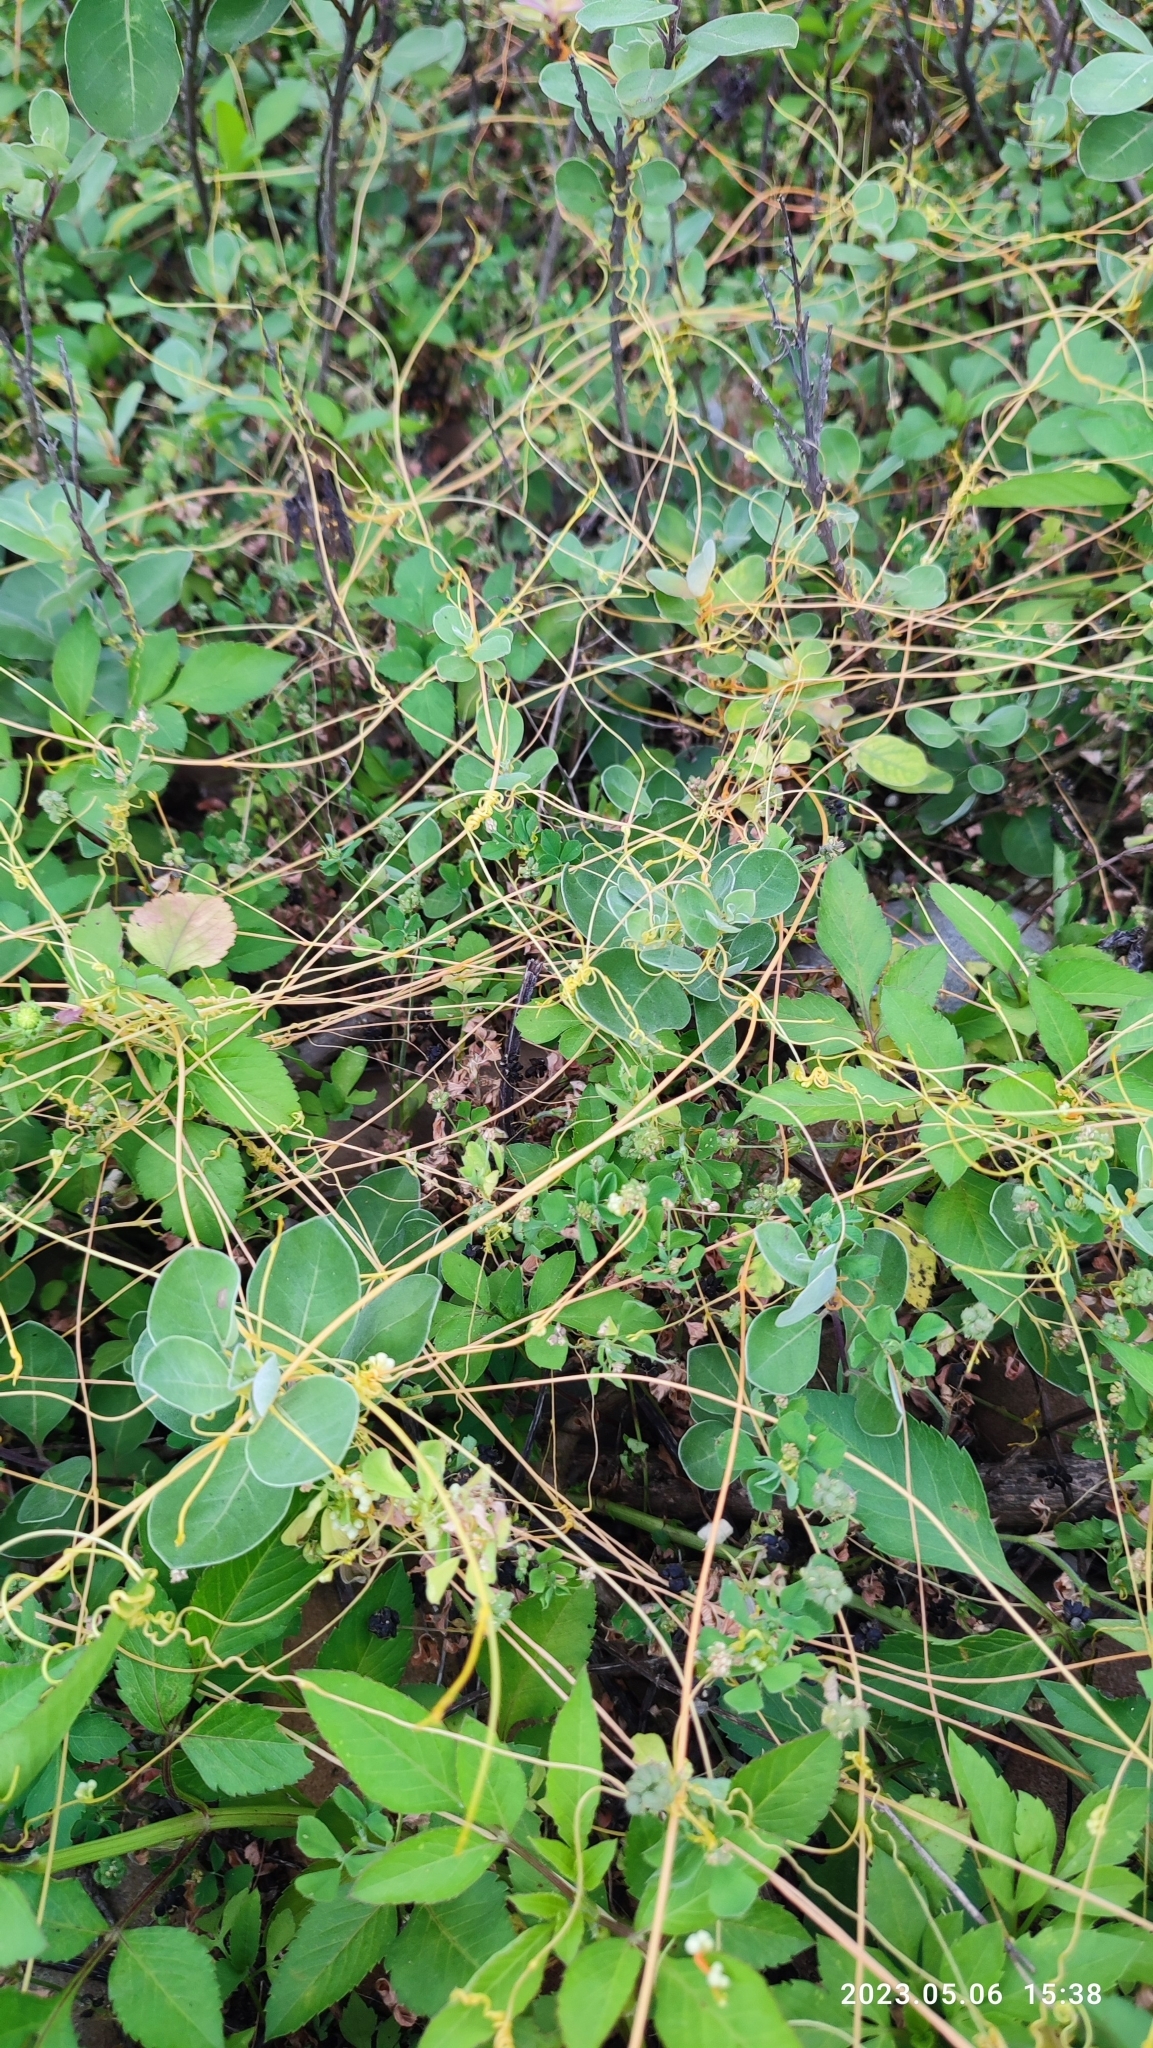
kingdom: Plantae
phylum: Tracheophyta
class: Magnoliopsida
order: Solanales
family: Convolvulaceae
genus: Cuscuta
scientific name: Cuscuta campestris
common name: Yellow dodder
